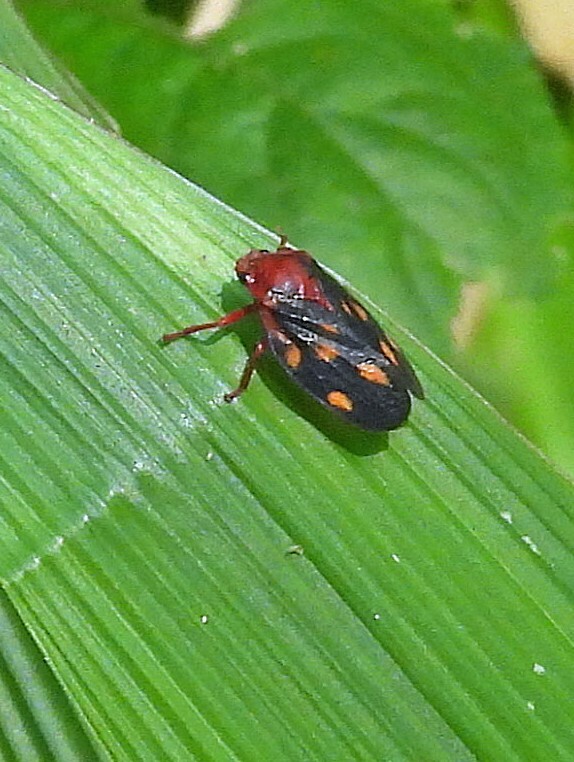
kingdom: Animalia
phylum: Arthropoda
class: Insecta
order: Hemiptera
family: Cercopidae
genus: Mahanarva
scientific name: Mahanarva rubropicta
